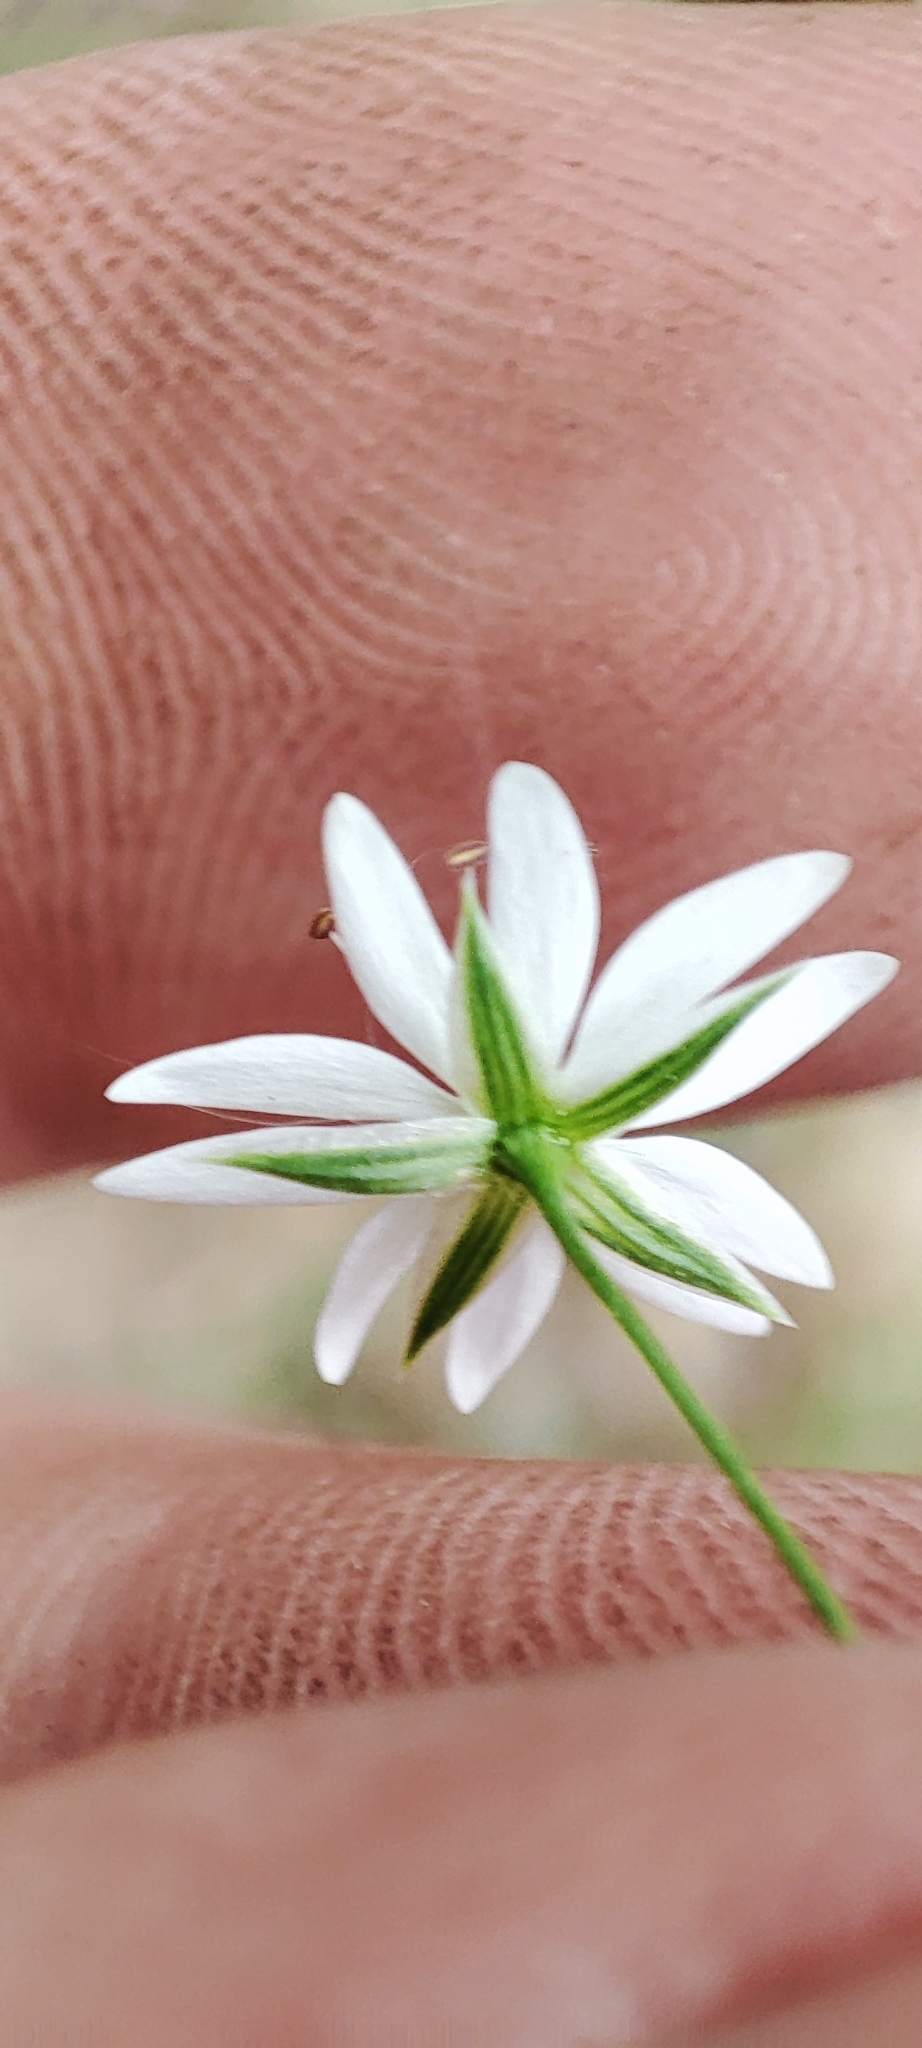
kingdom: Plantae
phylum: Tracheophyta
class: Magnoliopsida
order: Caryophyllales
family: Caryophyllaceae
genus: Stellaria
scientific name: Stellaria graminea
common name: Grass-like starwort
